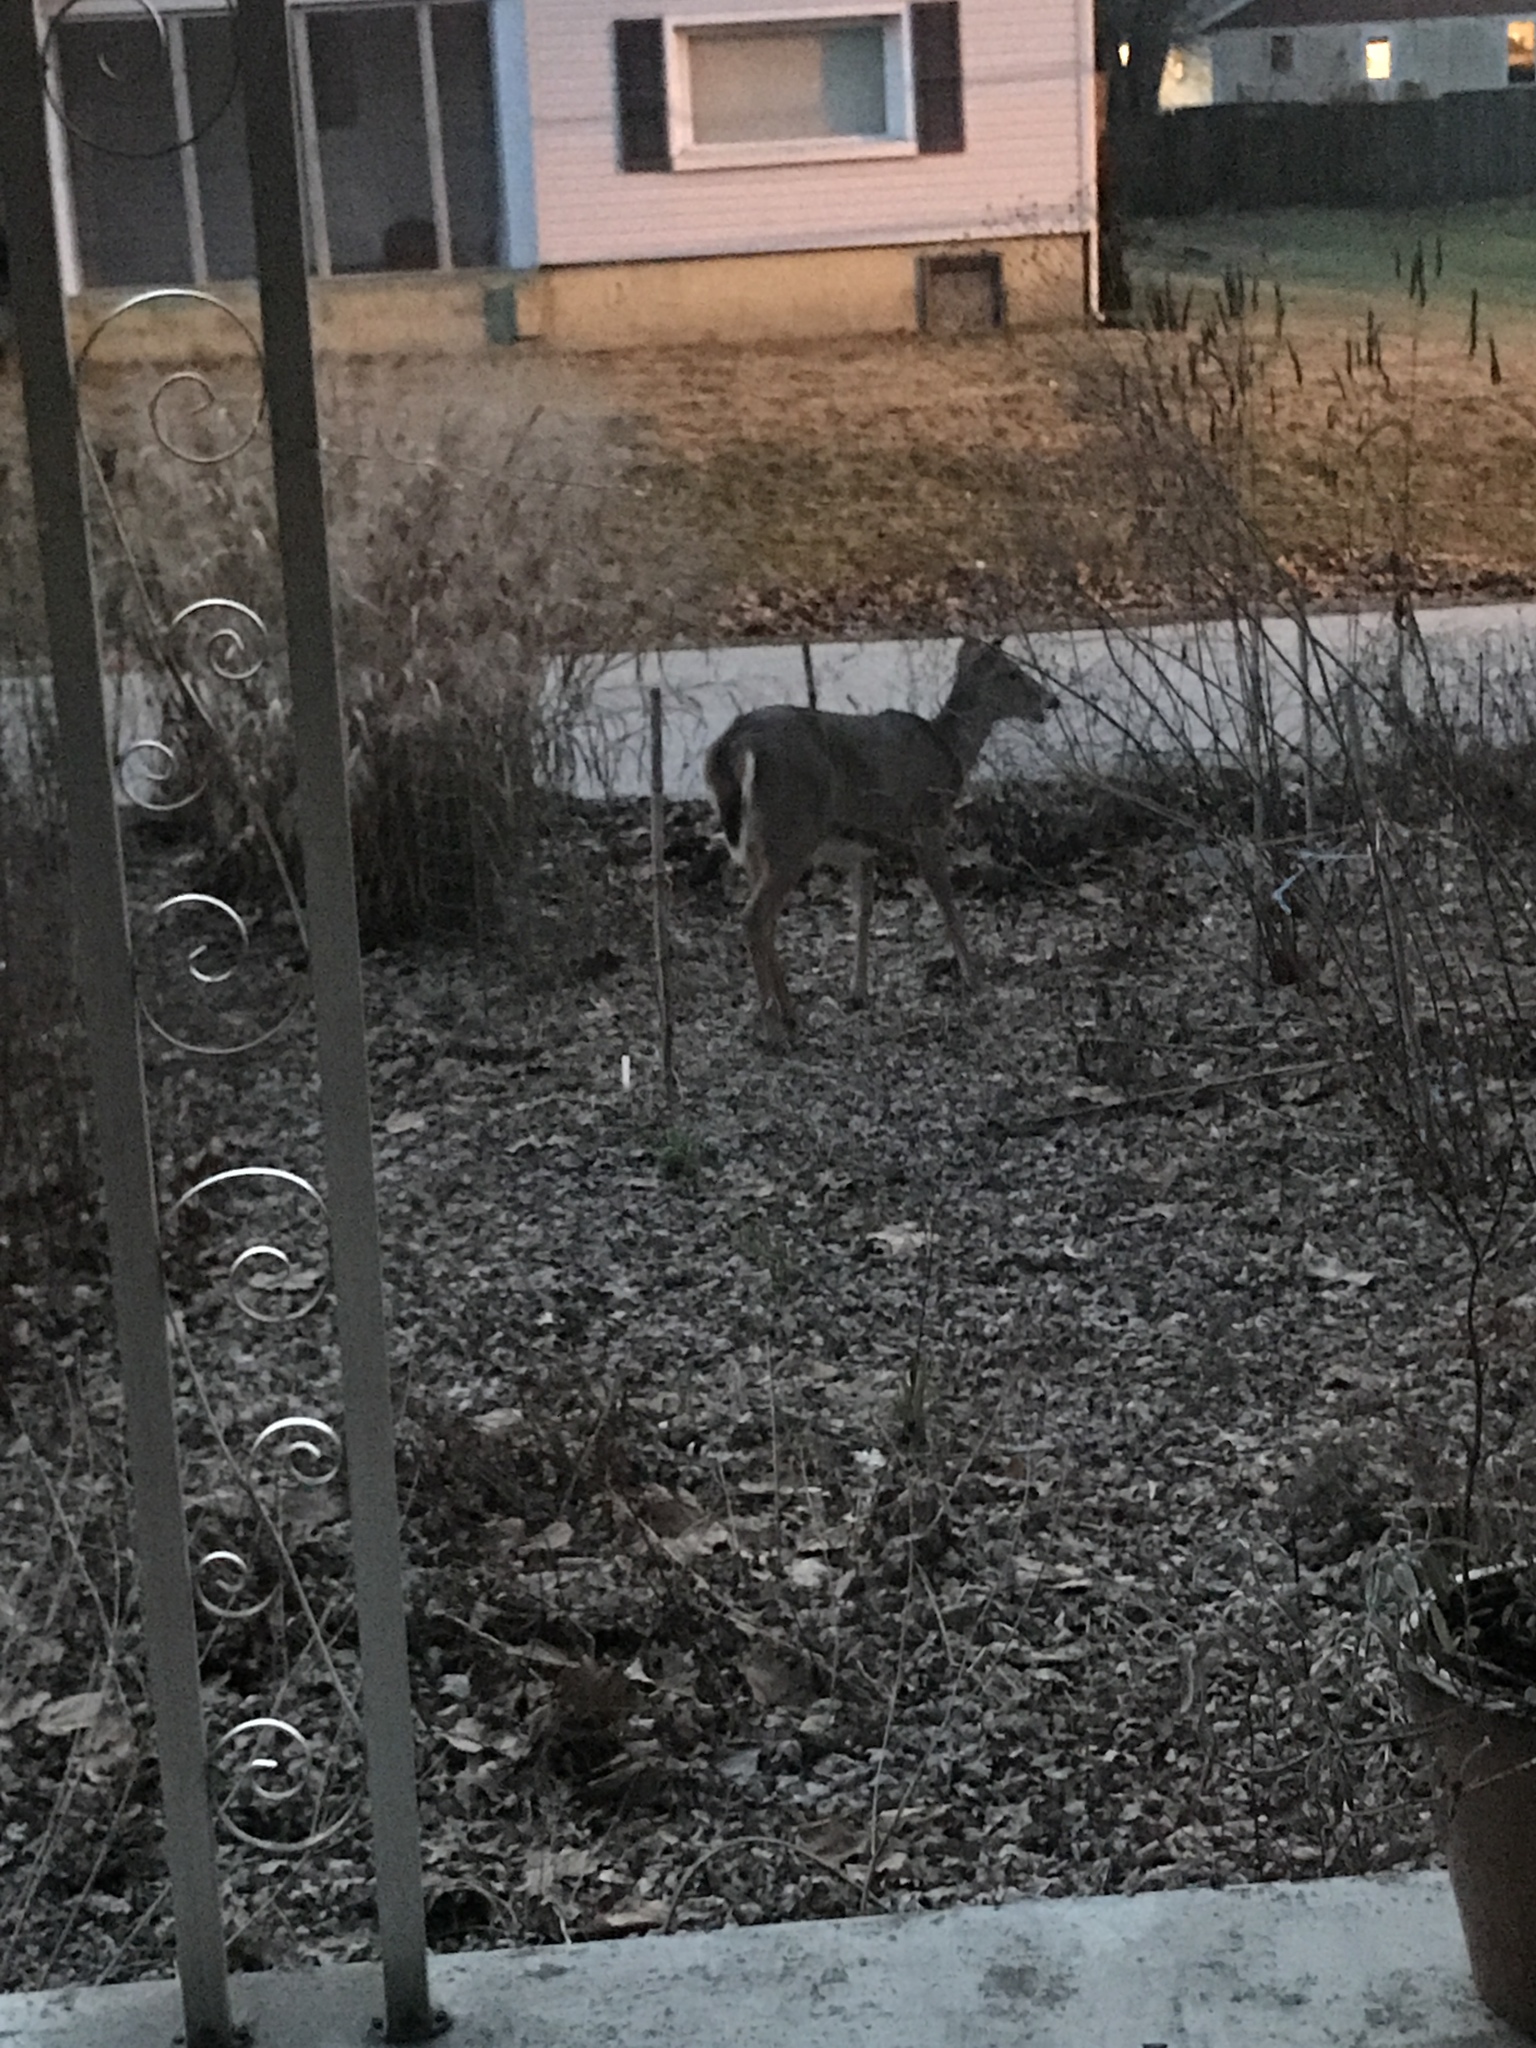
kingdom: Animalia
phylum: Chordata
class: Mammalia
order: Artiodactyla
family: Cervidae
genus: Odocoileus
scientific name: Odocoileus virginianus
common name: White-tailed deer
